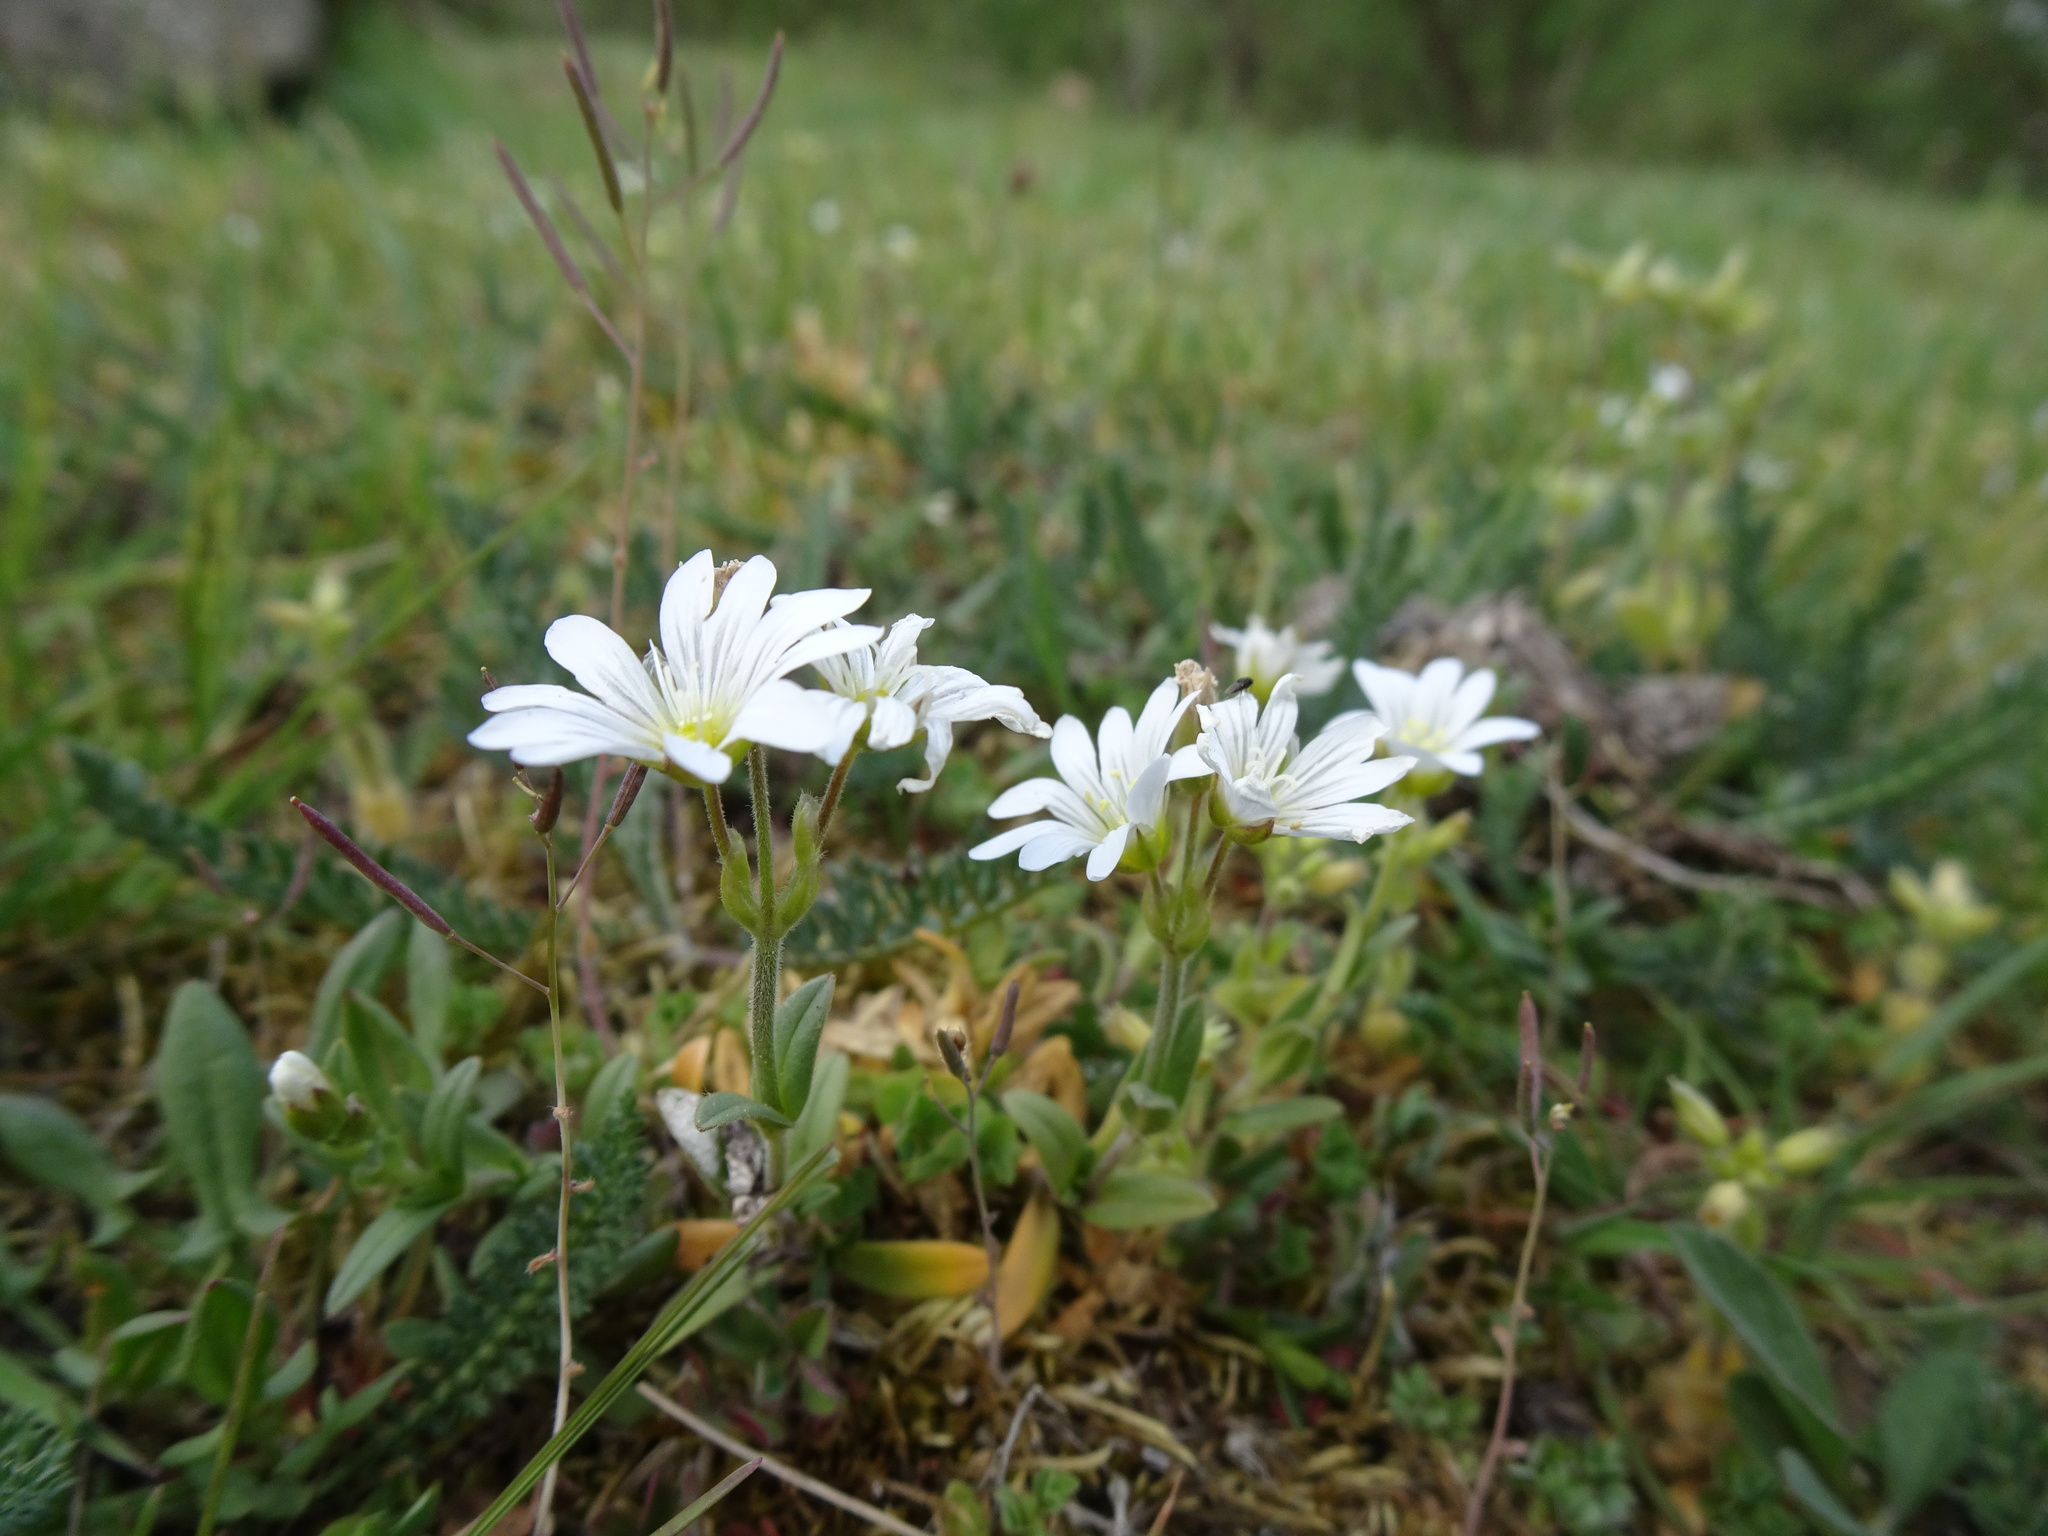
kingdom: Plantae
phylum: Tracheophyta
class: Magnoliopsida
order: Caryophyllales
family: Caryophyllaceae
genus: Cerastium
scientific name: Cerastium arvense
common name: Field mouse-ear
